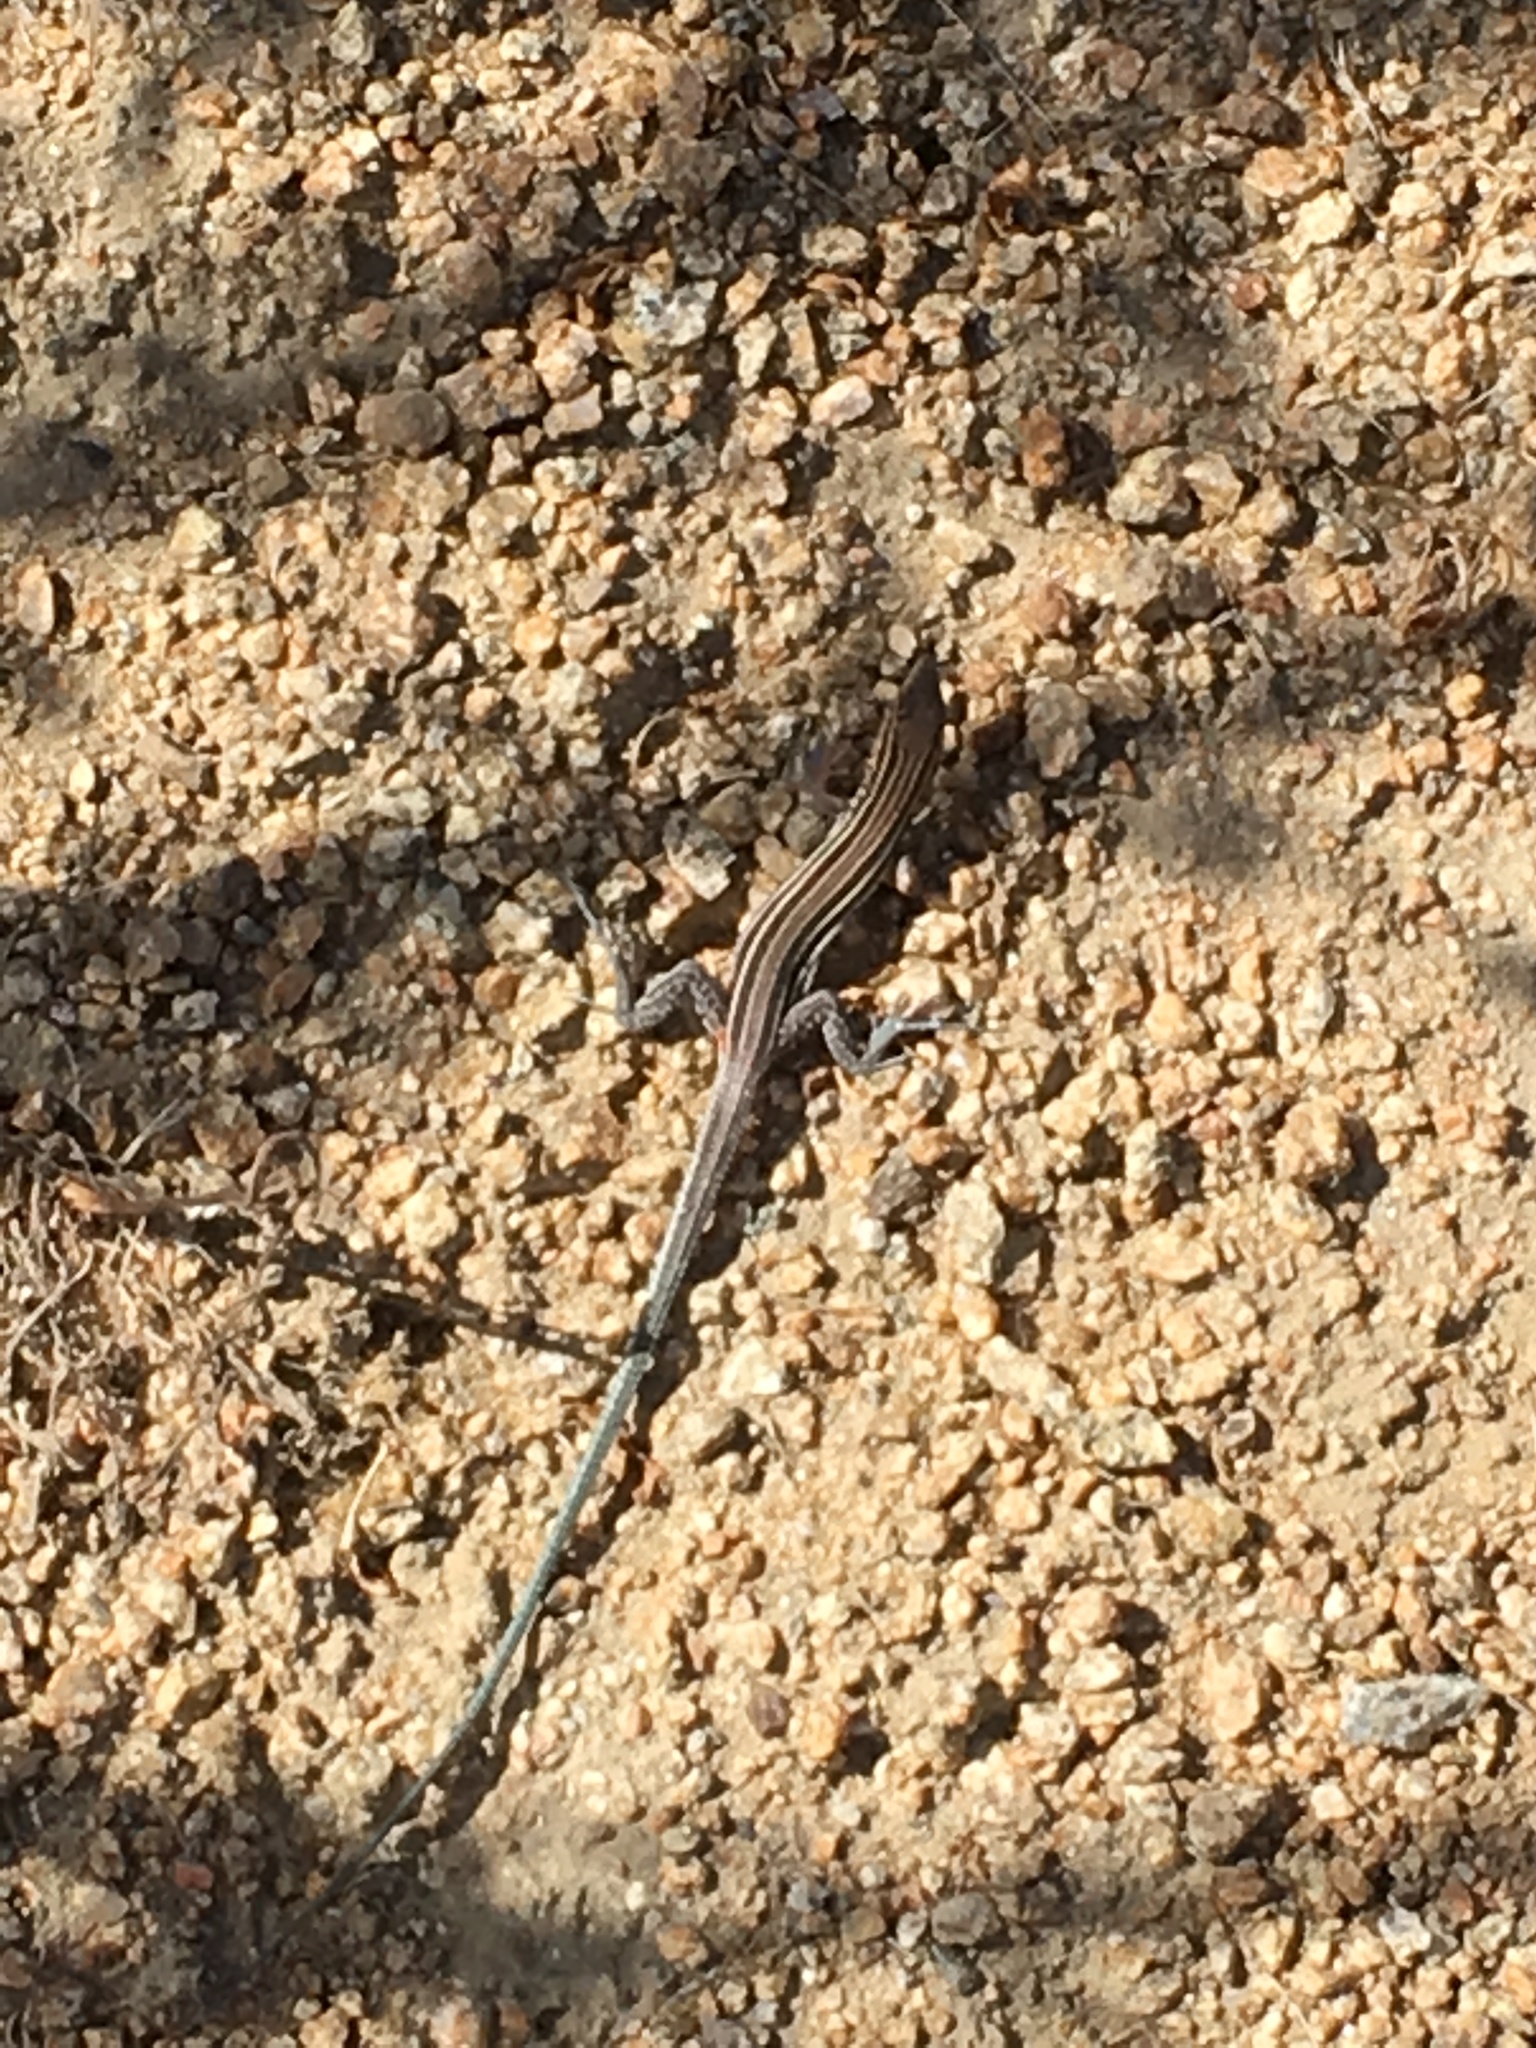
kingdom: Animalia
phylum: Chordata
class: Squamata
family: Teiidae
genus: Aspidoscelis
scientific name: Aspidoscelis hyperythrus
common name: Orange-throated race-runner
